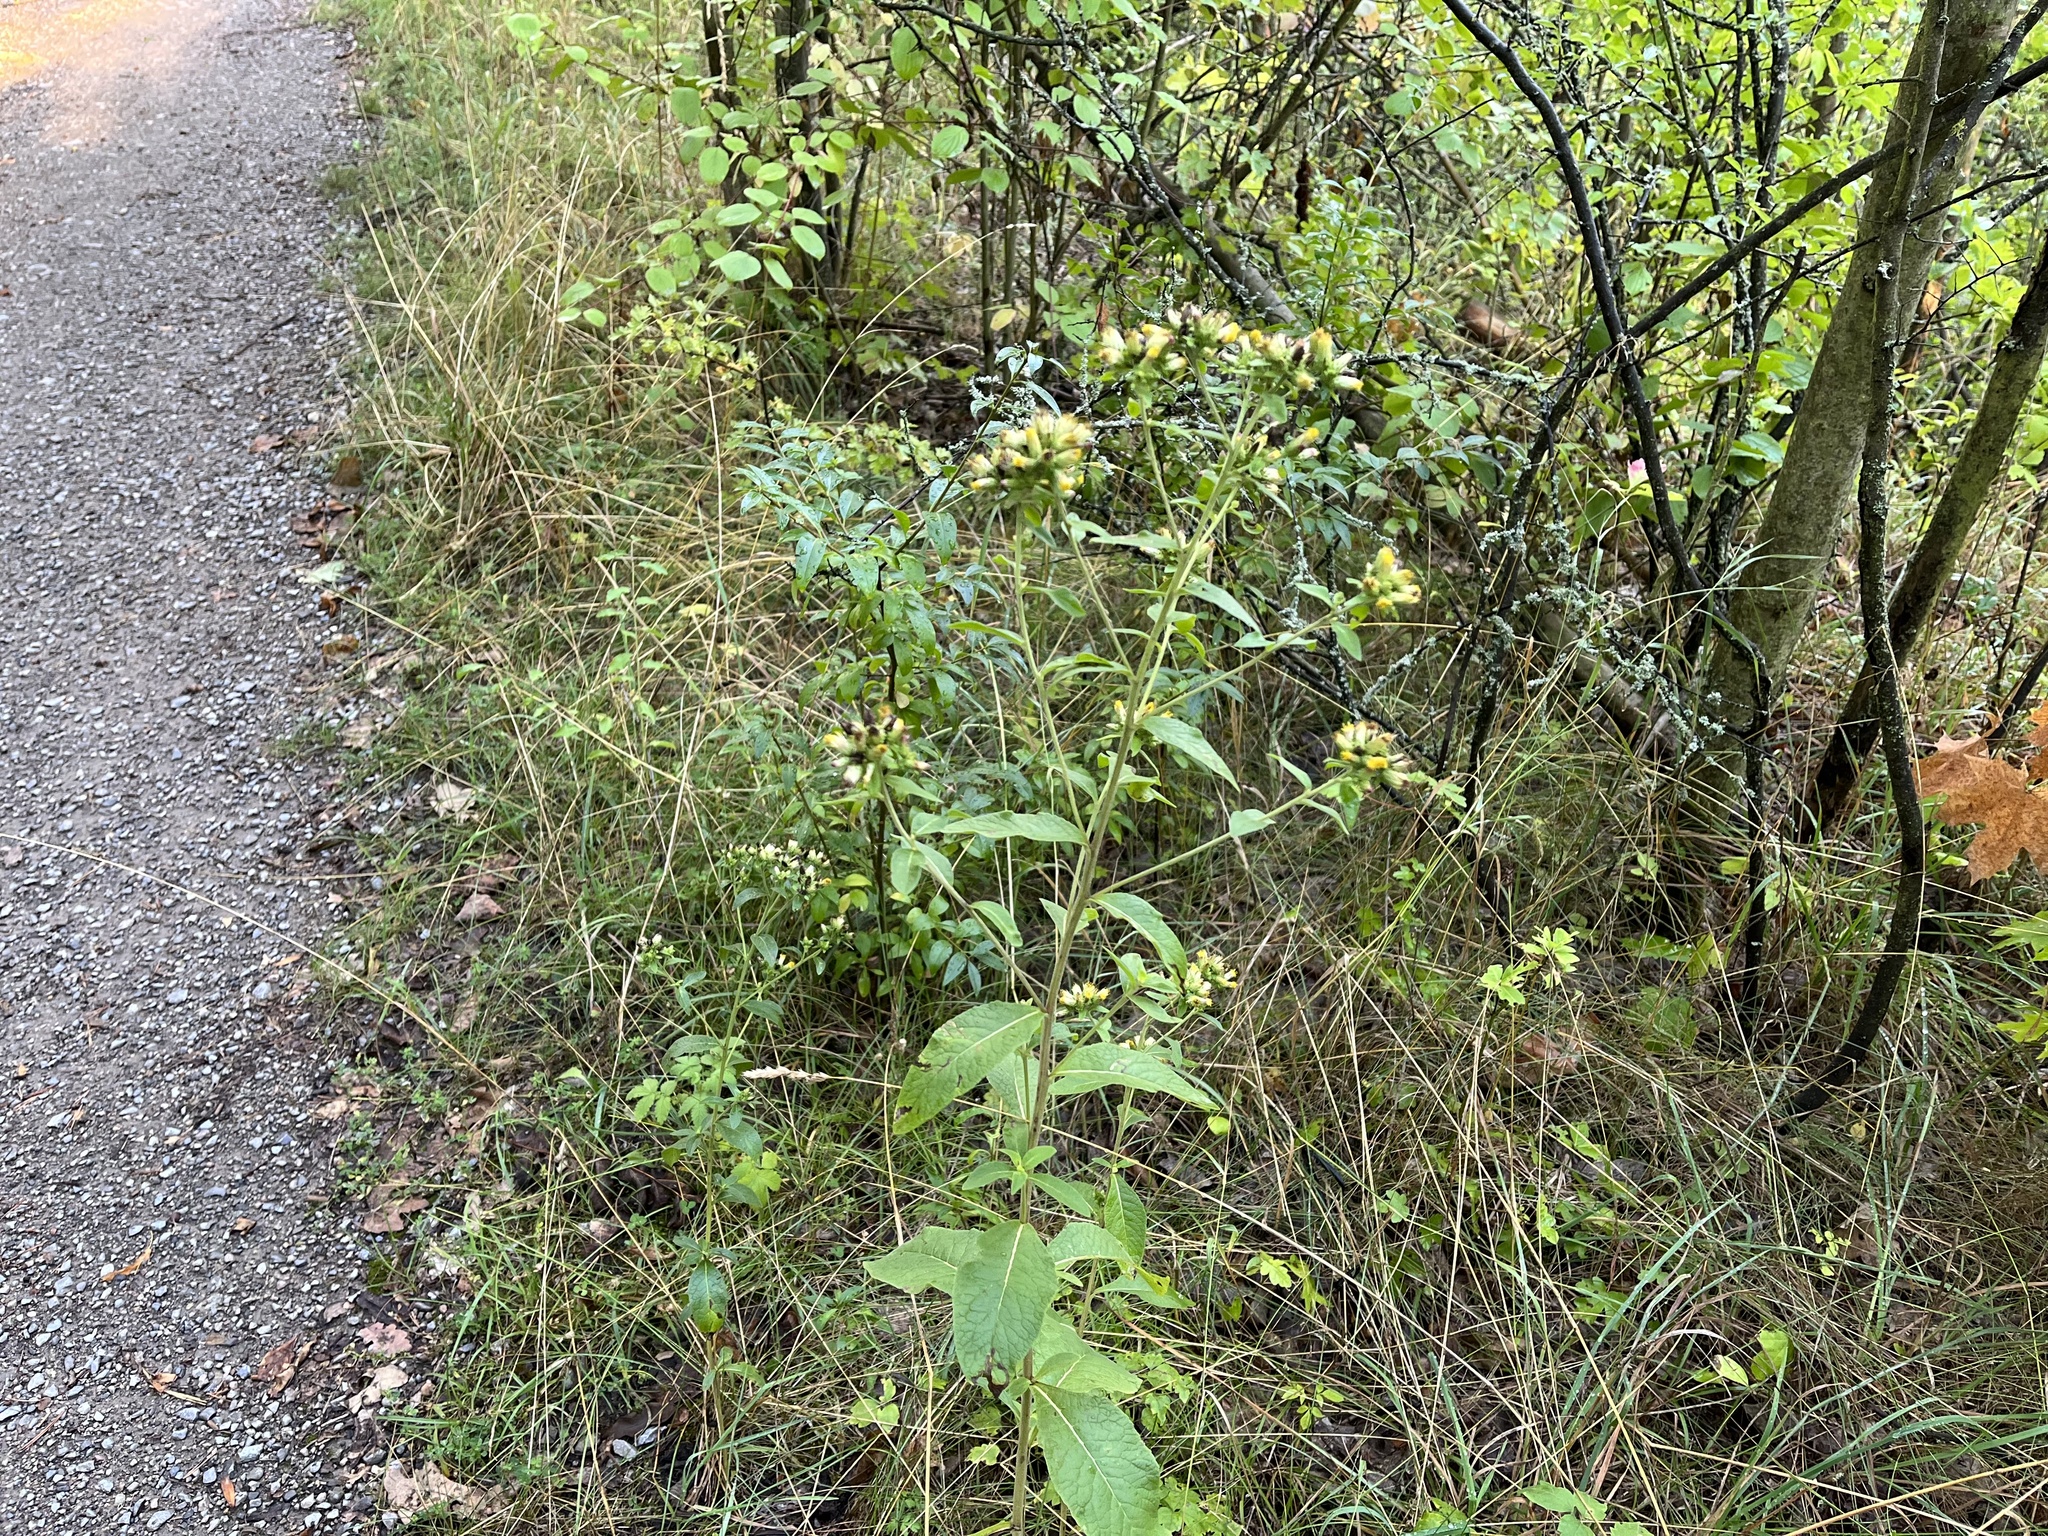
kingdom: Plantae
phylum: Tracheophyta
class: Magnoliopsida
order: Asterales
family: Asteraceae
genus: Pentanema
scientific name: Pentanema squarrosum
